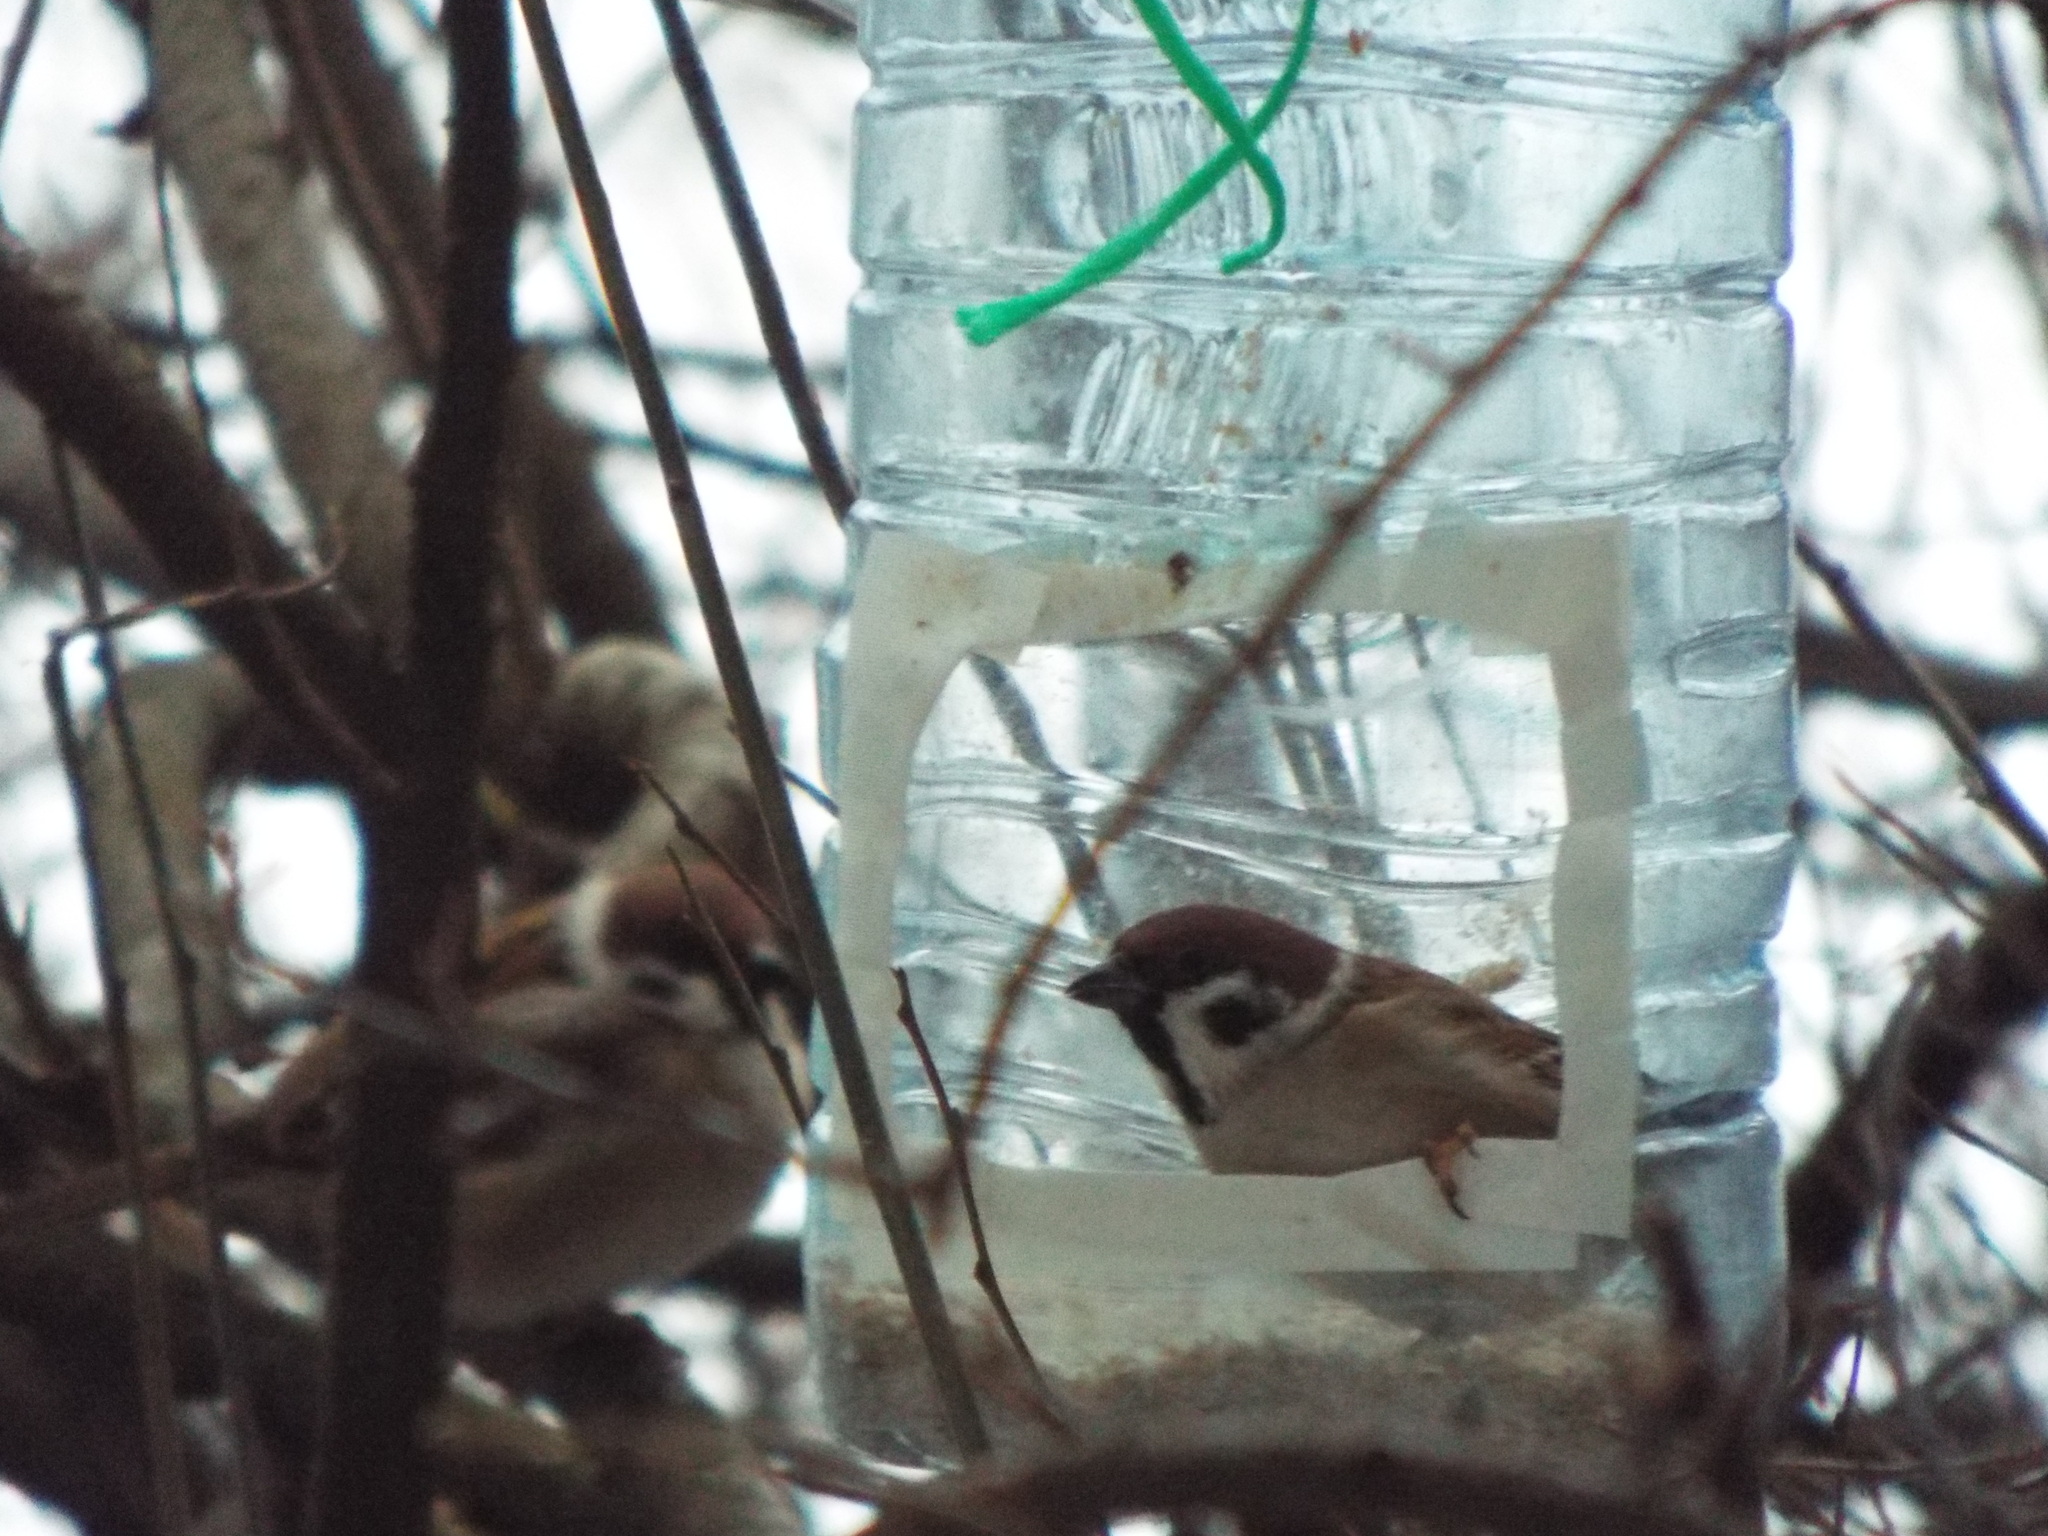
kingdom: Animalia
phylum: Chordata
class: Aves
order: Passeriformes
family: Passeridae
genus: Passer
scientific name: Passer montanus
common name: Eurasian tree sparrow
